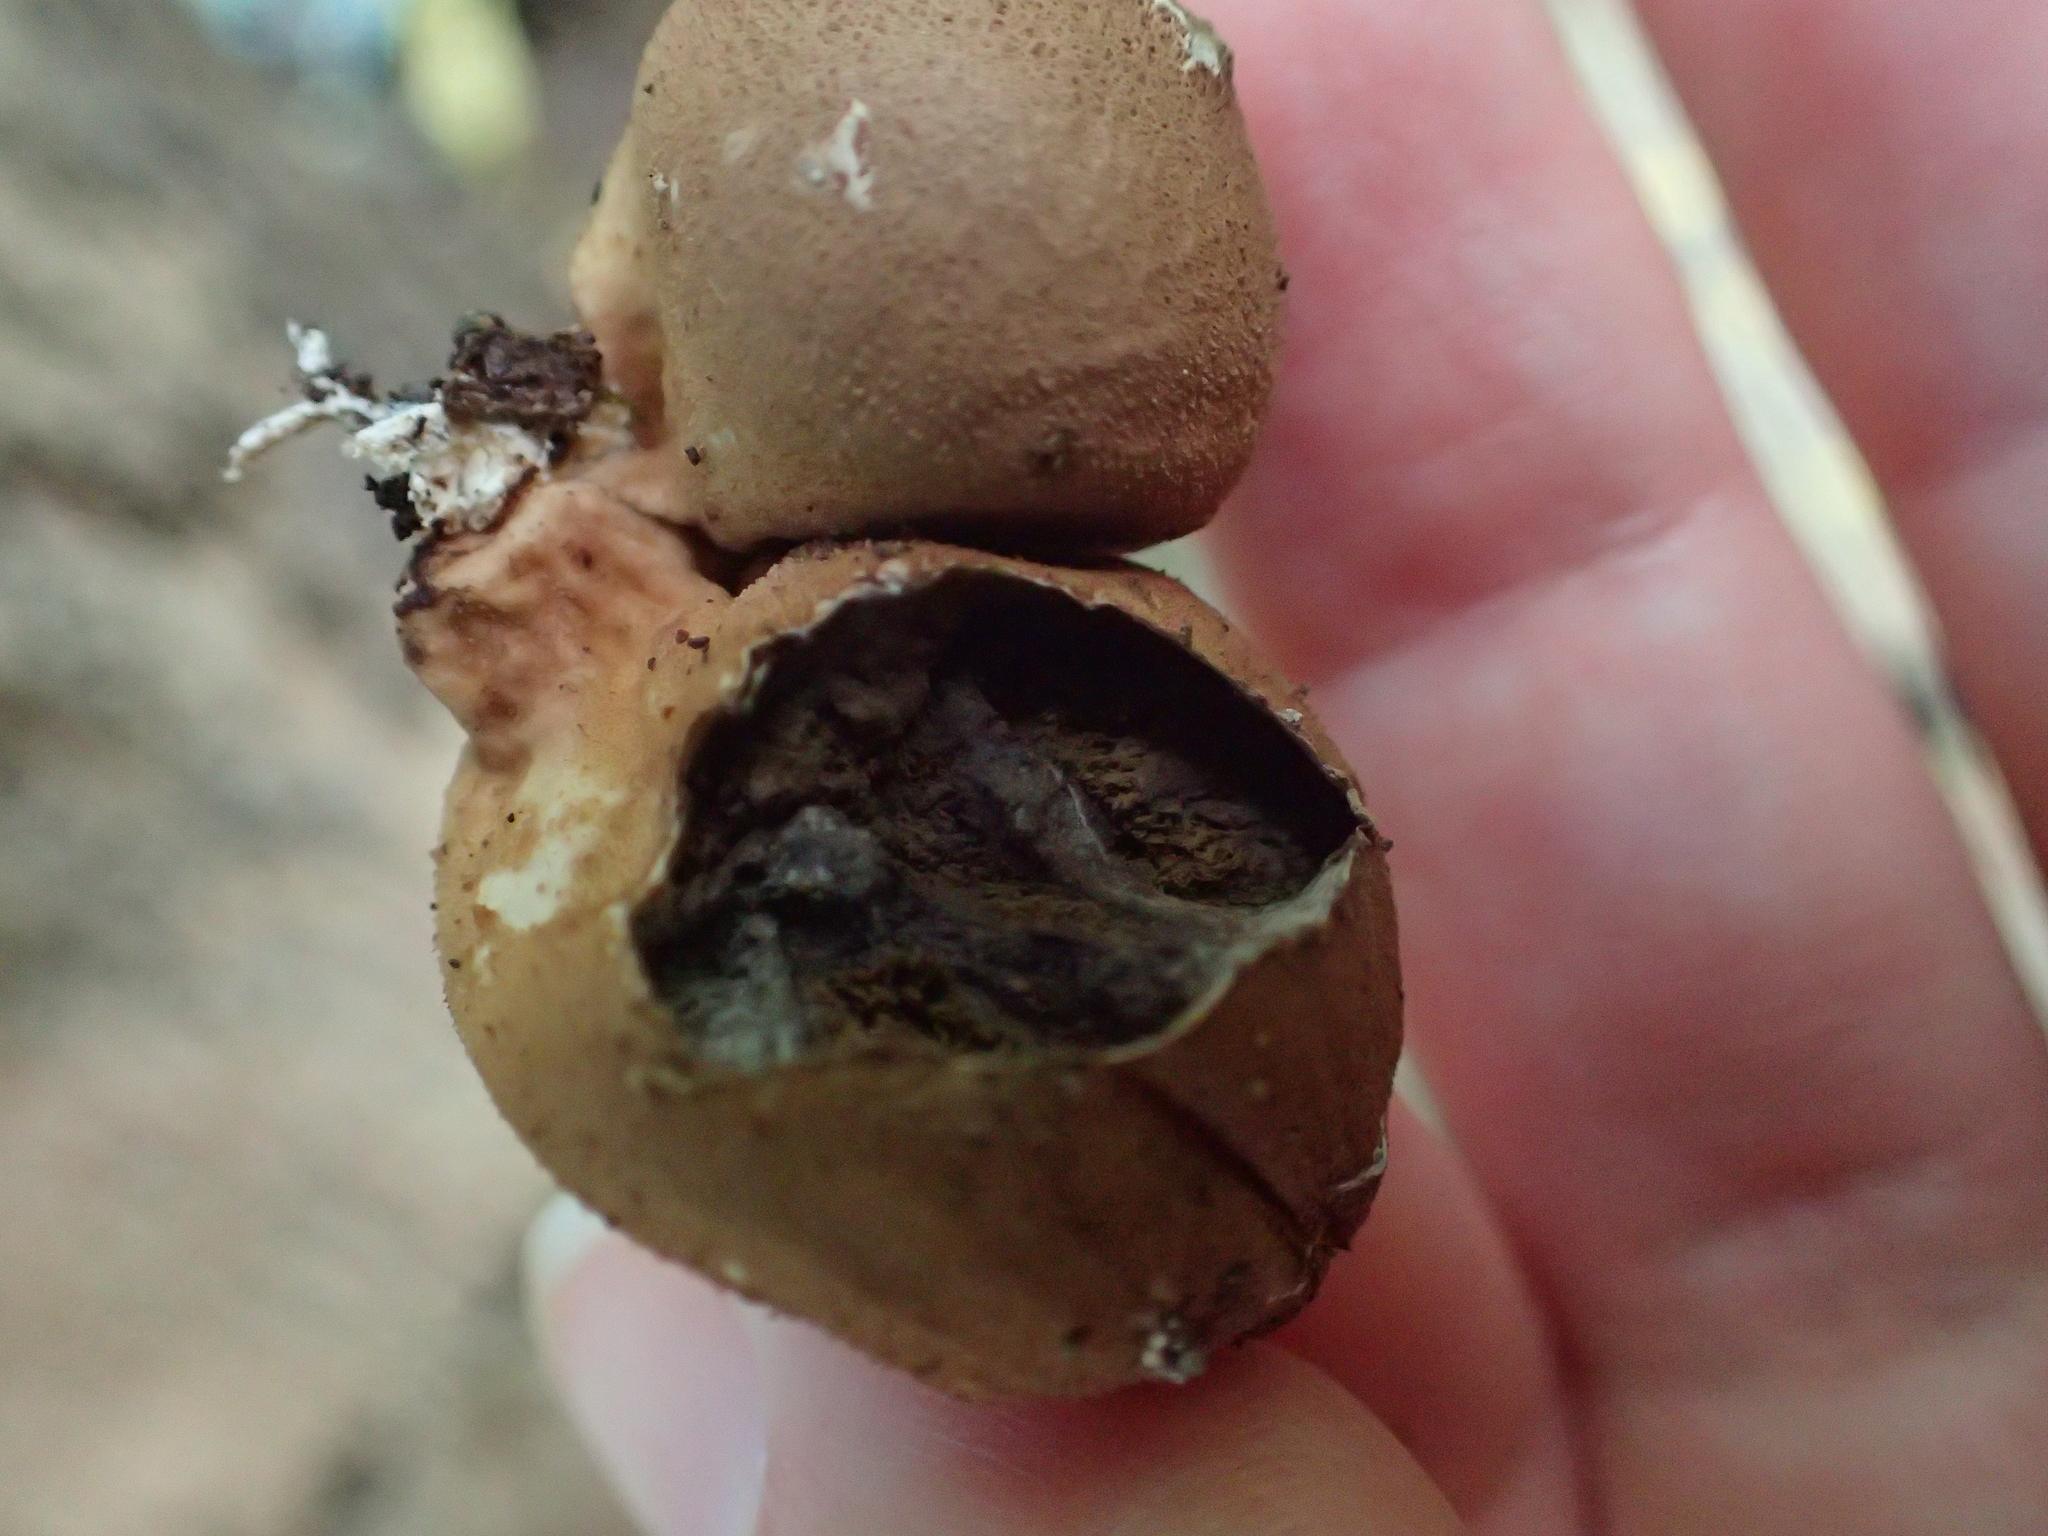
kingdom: Fungi
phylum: Basidiomycota
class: Agaricomycetes
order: Agaricales
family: Lycoperdaceae
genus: Apioperdon
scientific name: Apioperdon pyriforme
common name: Pear-shaped puffball
